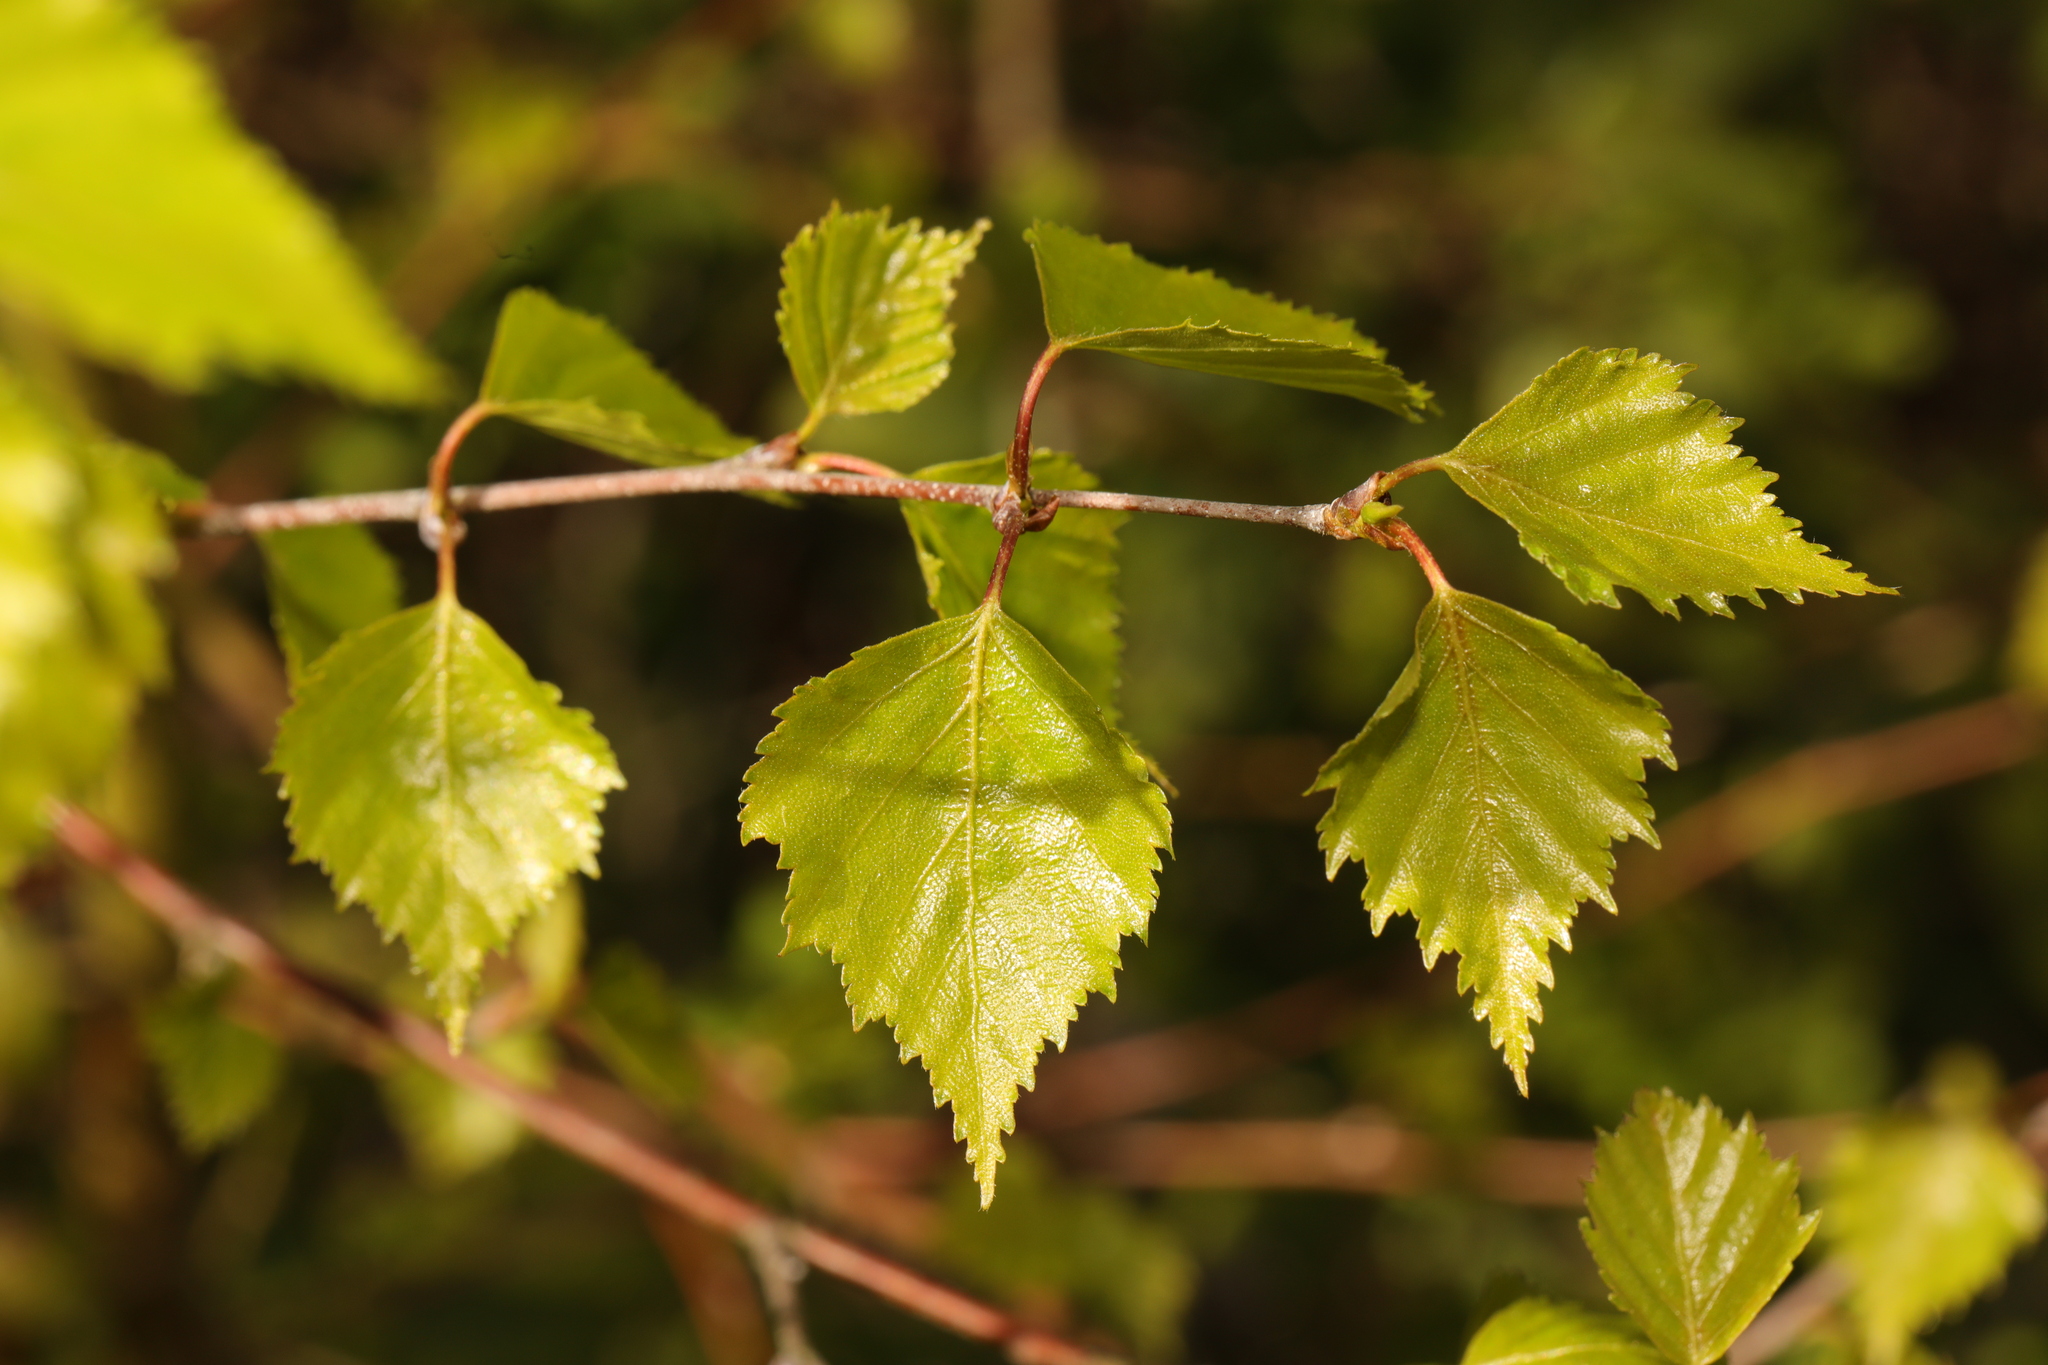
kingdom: Plantae
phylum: Tracheophyta
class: Magnoliopsida
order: Fagales
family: Betulaceae
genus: Betula
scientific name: Betula pendula
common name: Silver birch
